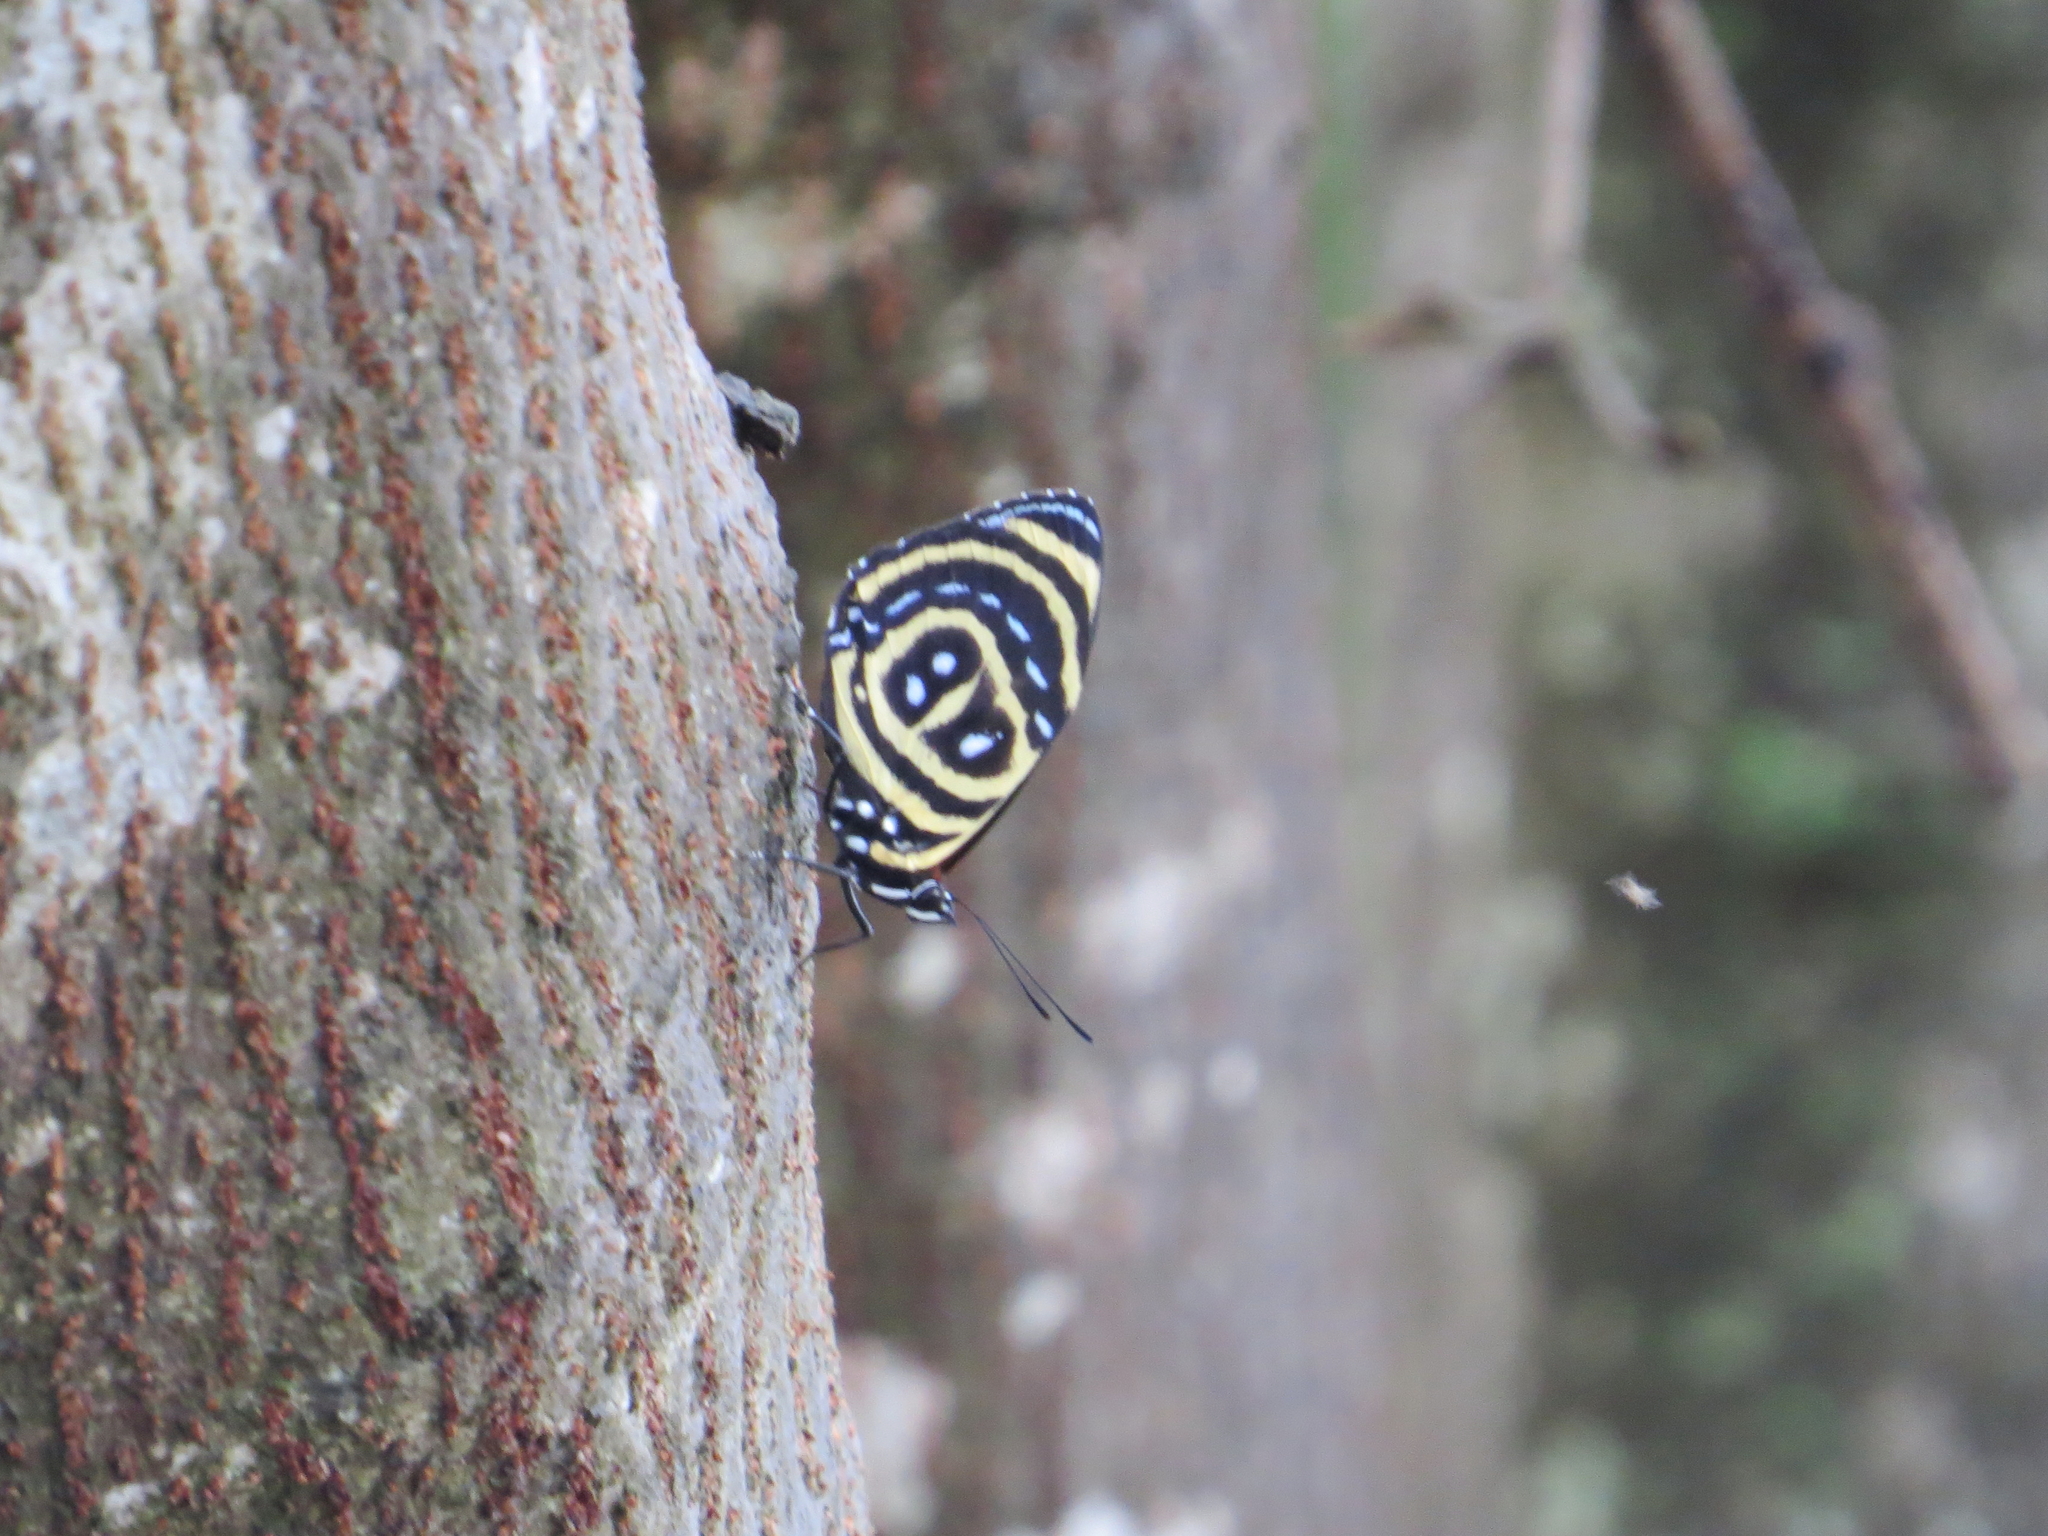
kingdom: Animalia
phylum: Arthropoda
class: Insecta
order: Lepidoptera
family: Nymphalidae
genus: Catagramma
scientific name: Catagramma astarte
